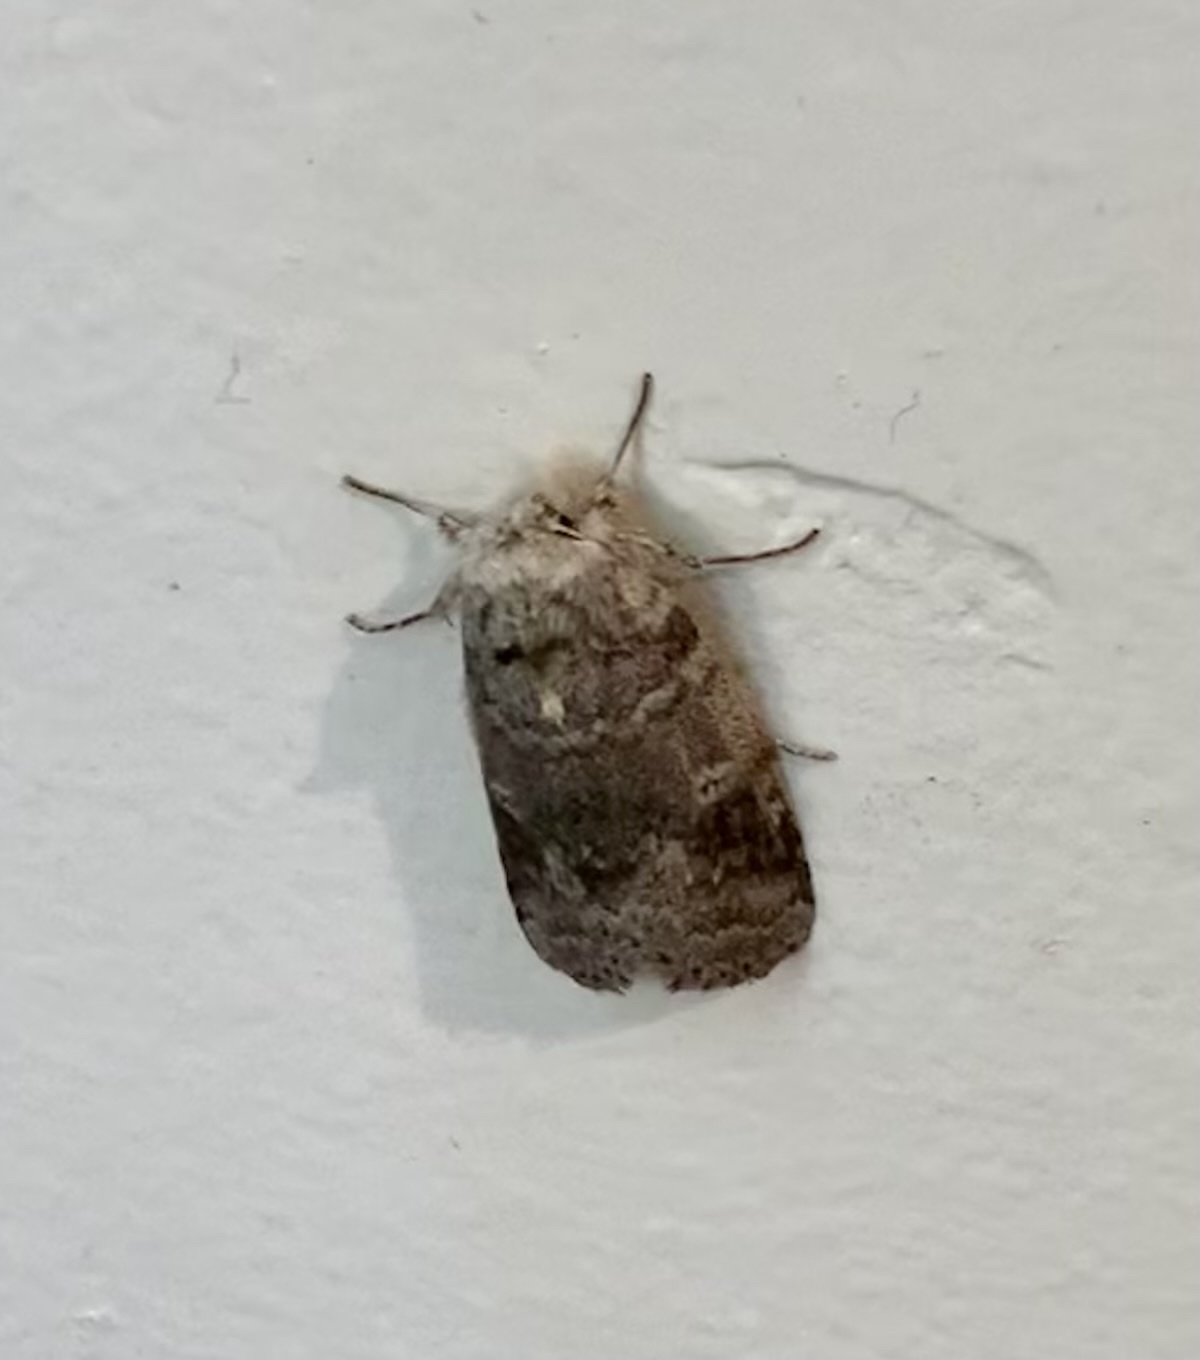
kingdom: Animalia
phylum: Arthropoda
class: Insecta
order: Lepidoptera
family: Notodontidae
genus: Lochmaeus
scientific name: Lochmaeus manteo
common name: Variable oakleaf caterpillar moth
